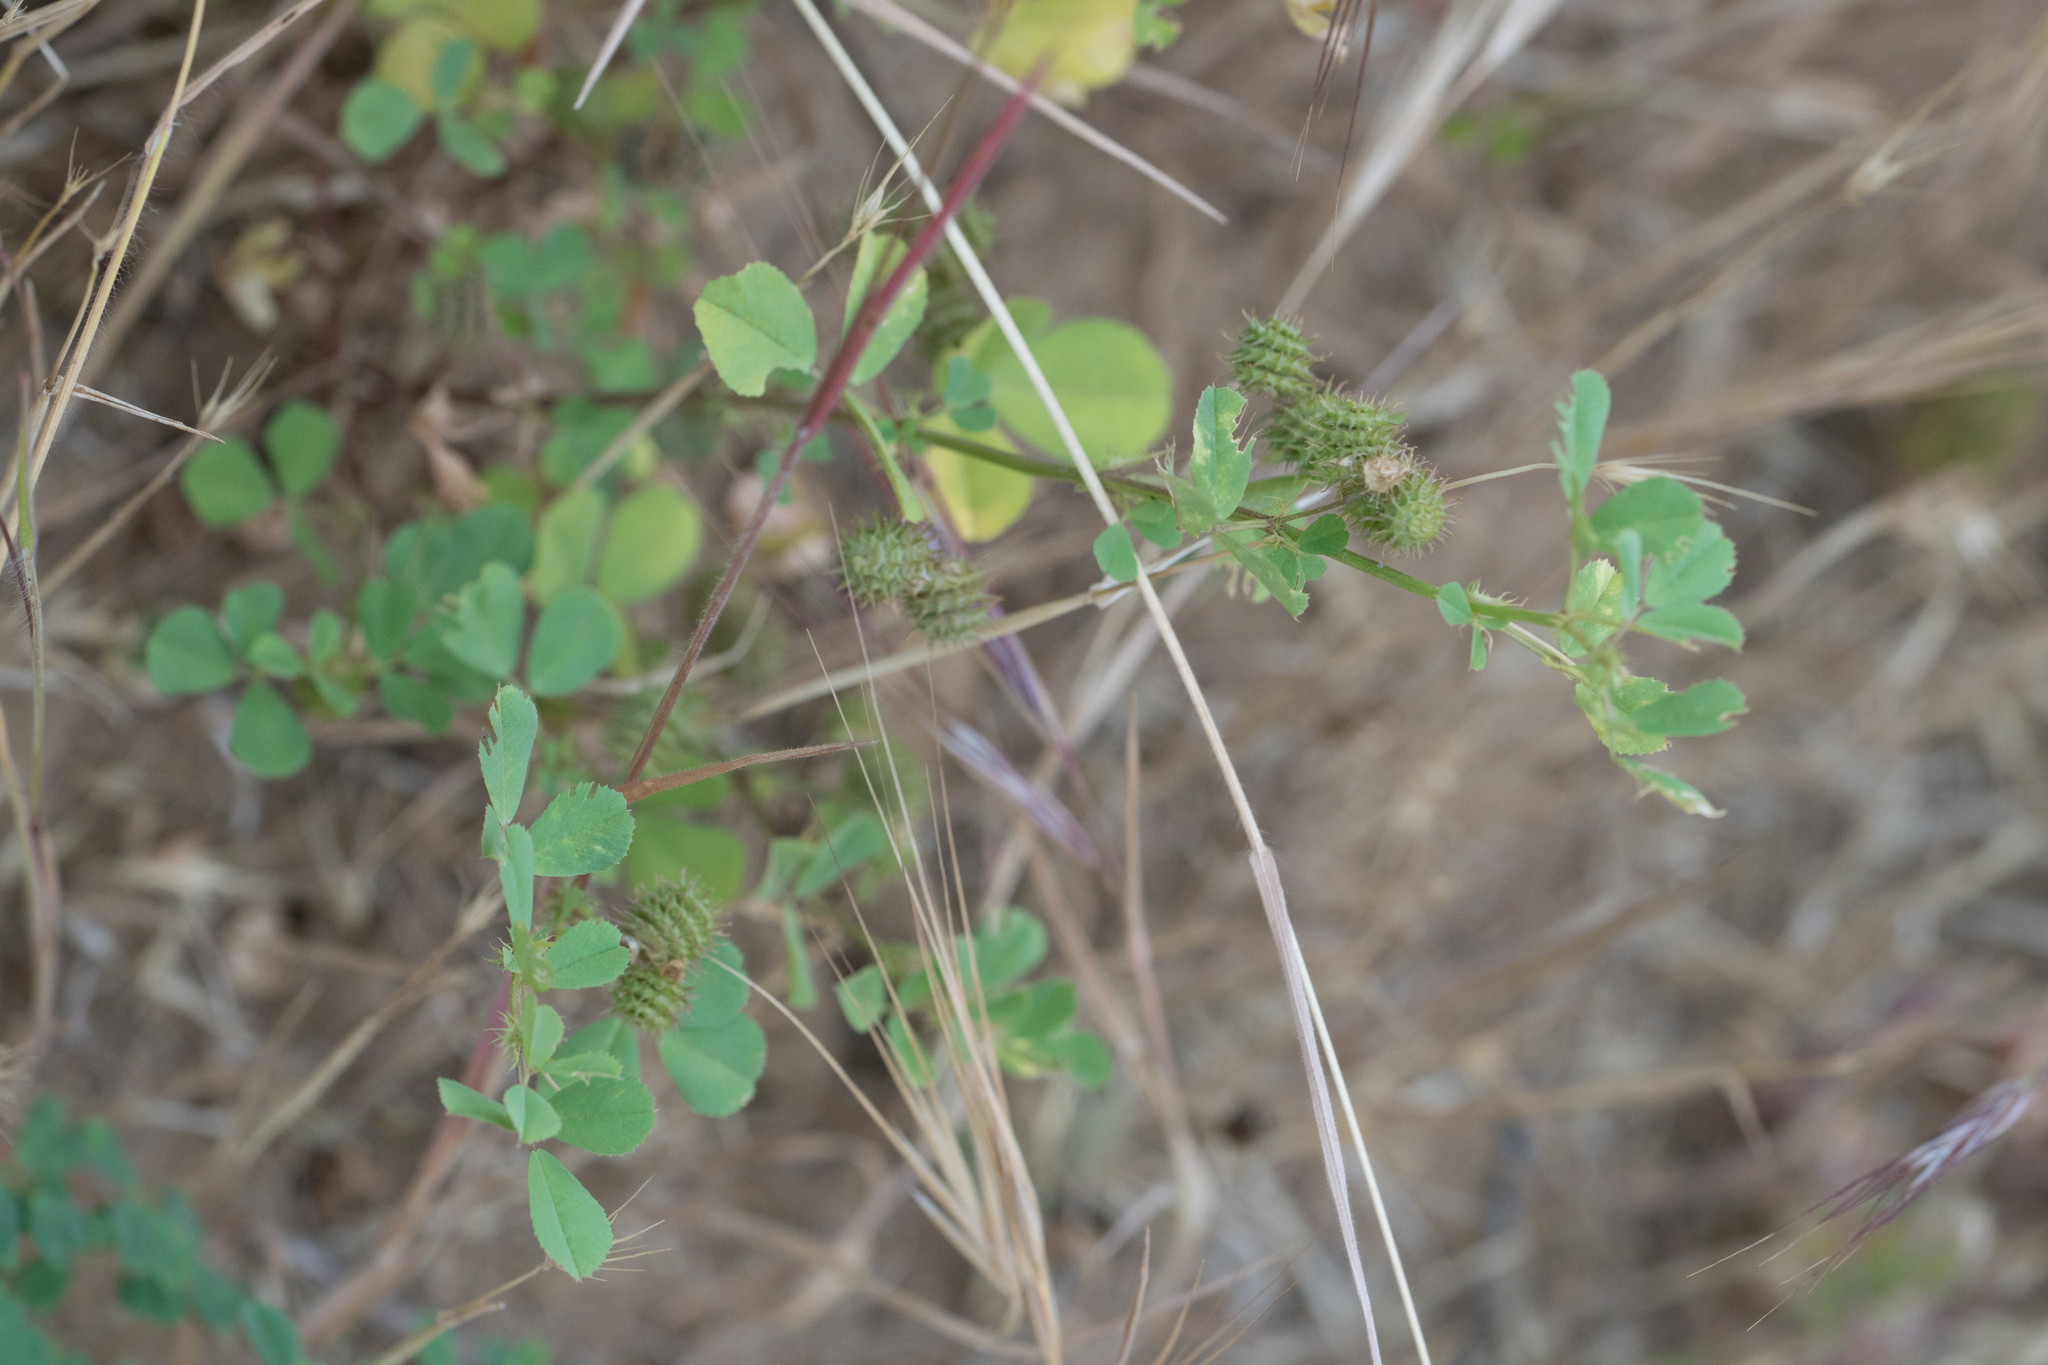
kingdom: Plantae
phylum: Tracheophyta
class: Magnoliopsida
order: Fabales
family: Fabaceae
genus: Medicago
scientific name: Medicago polymorpha
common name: Burclover
